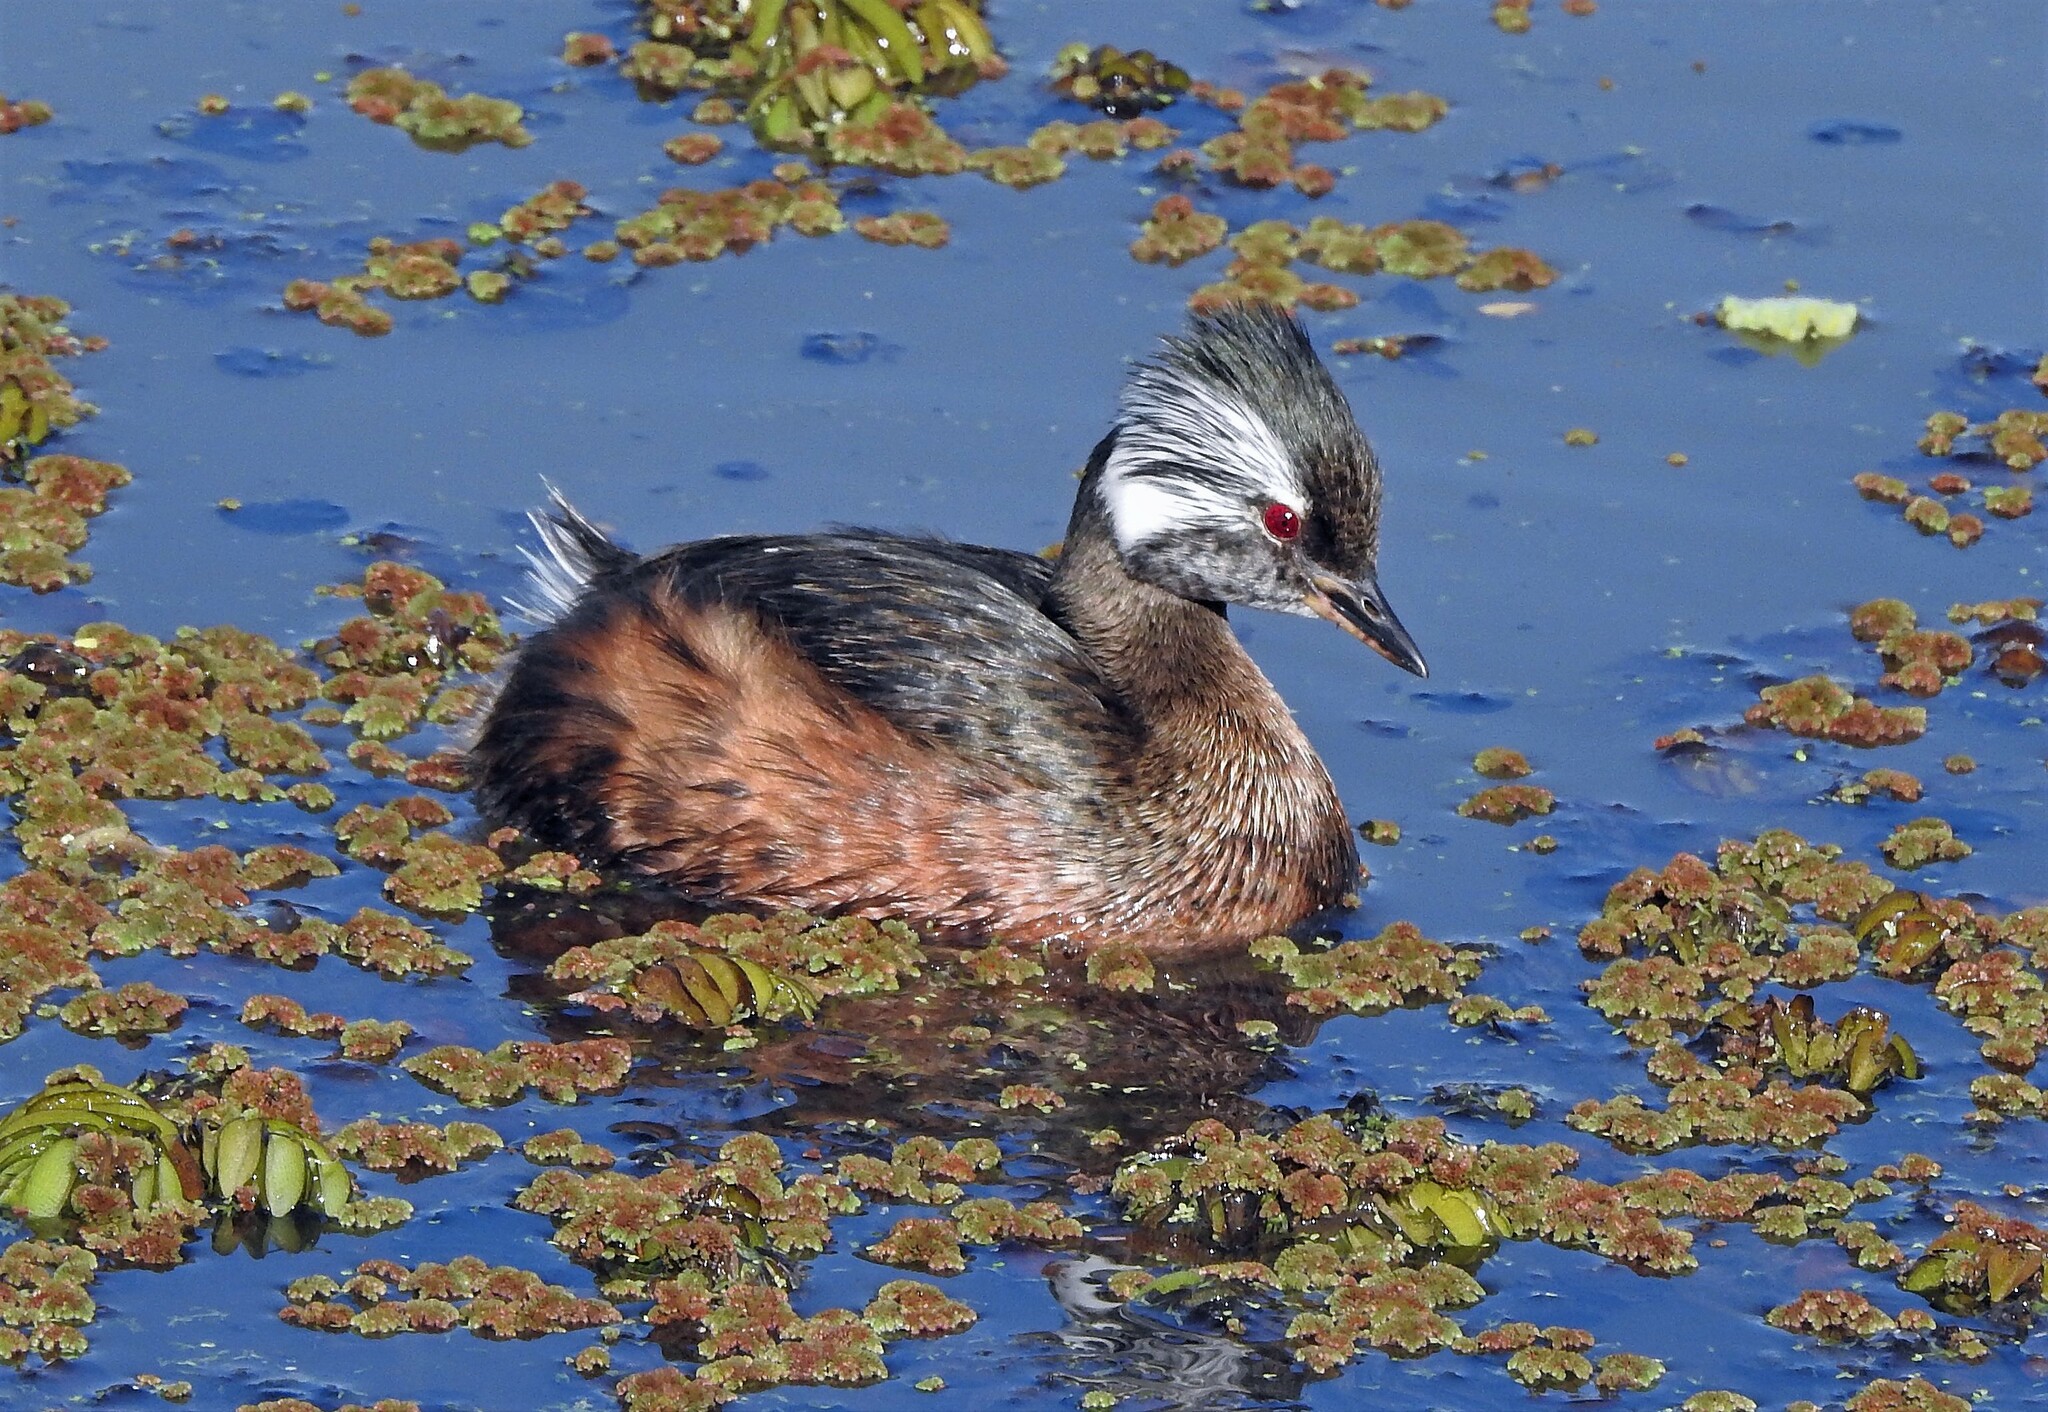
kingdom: Animalia
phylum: Chordata
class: Aves
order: Podicipediformes
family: Podicipedidae
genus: Rollandia
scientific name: Rollandia rolland
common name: White-tufted grebe
